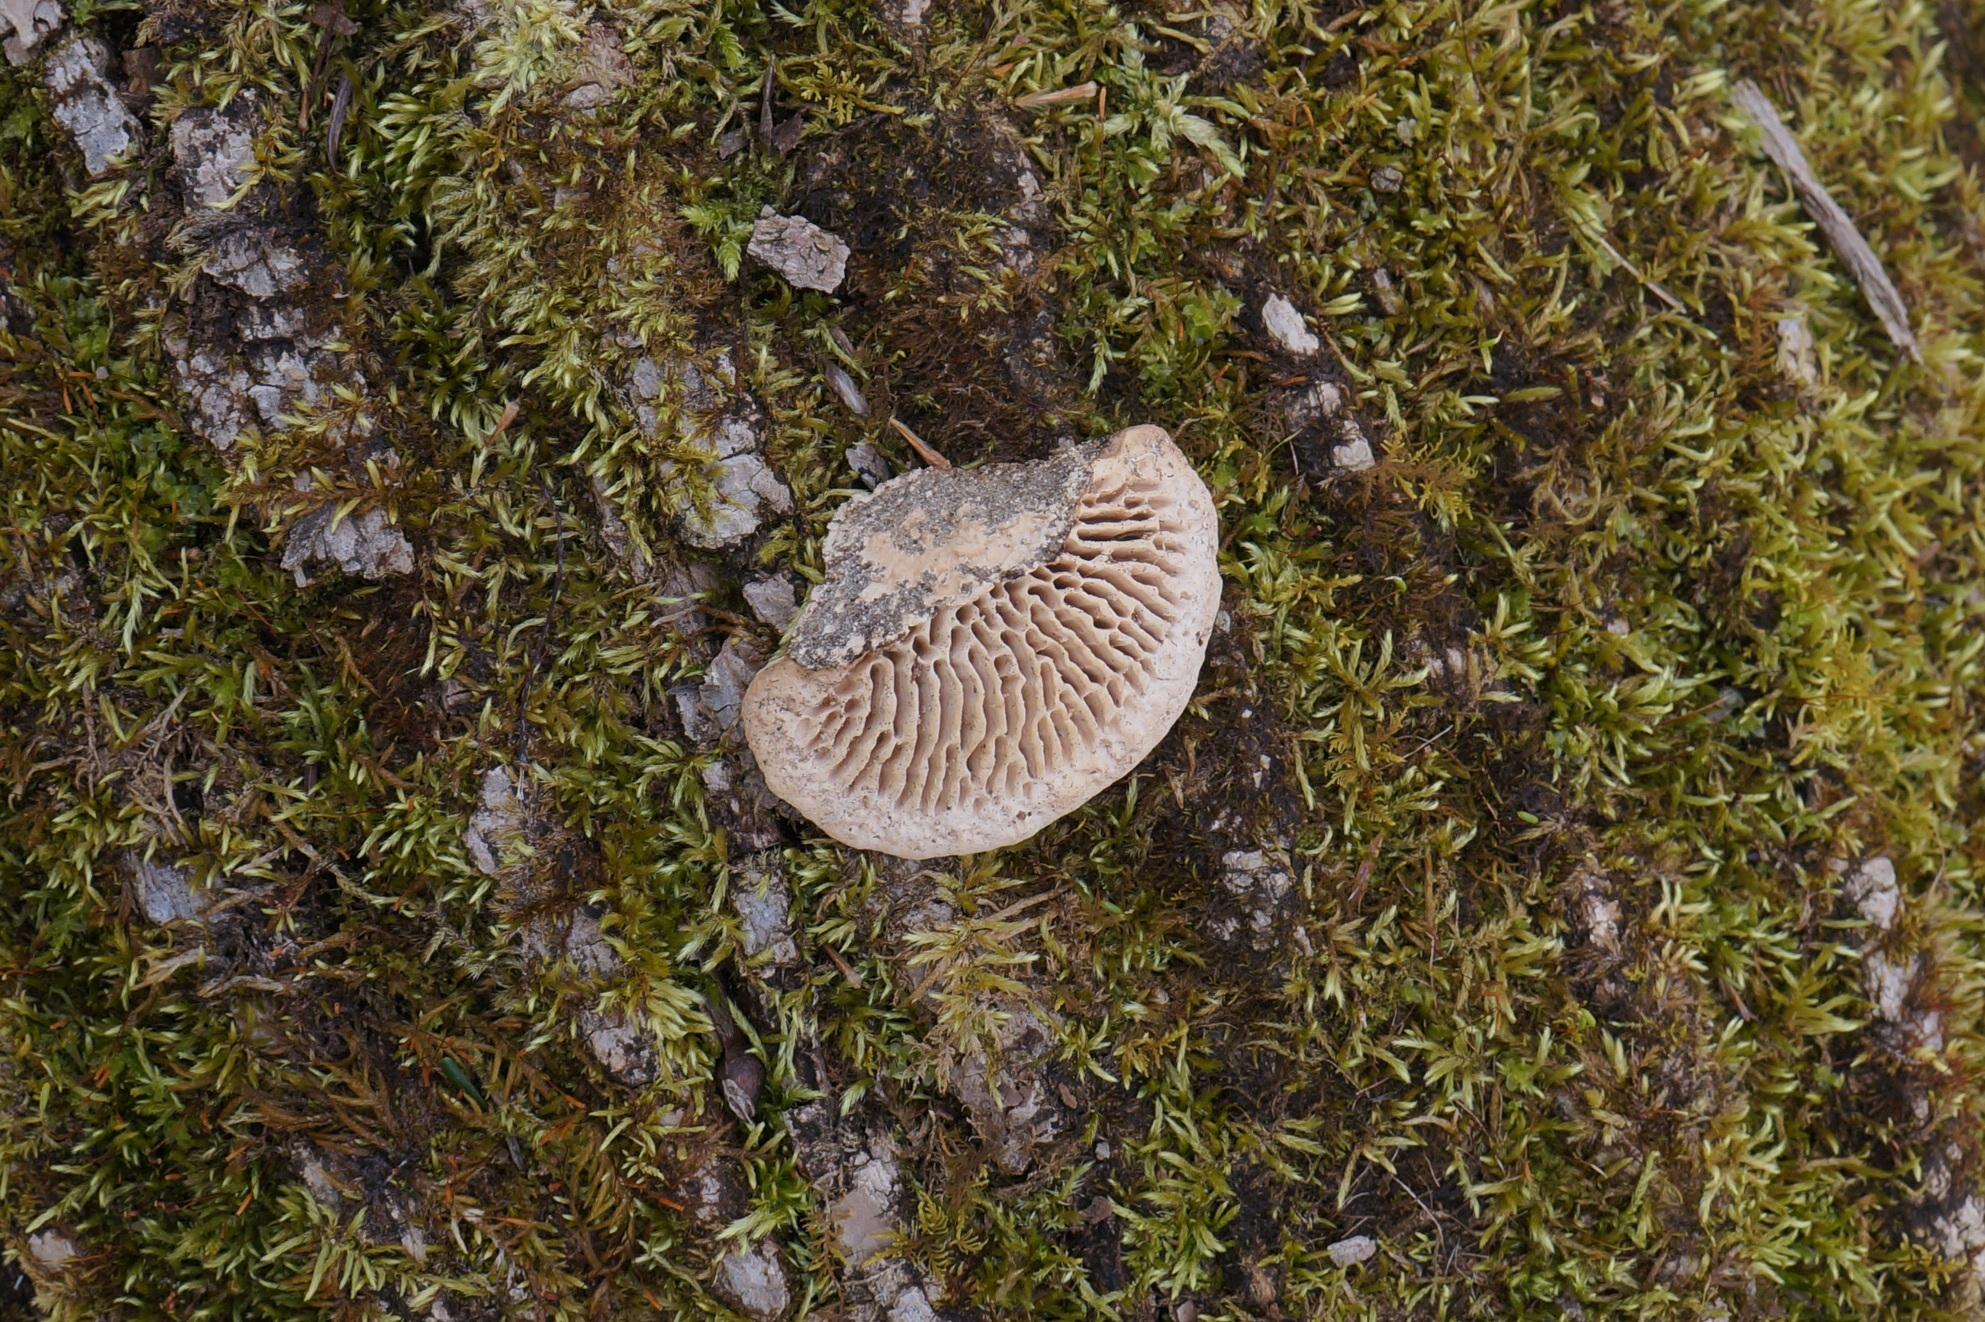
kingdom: Fungi
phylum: Basidiomycota
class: Agaricomycetes
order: Polyporales
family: Fomitopsidaceae
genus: Fomitopsis
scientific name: Fomitopsis
